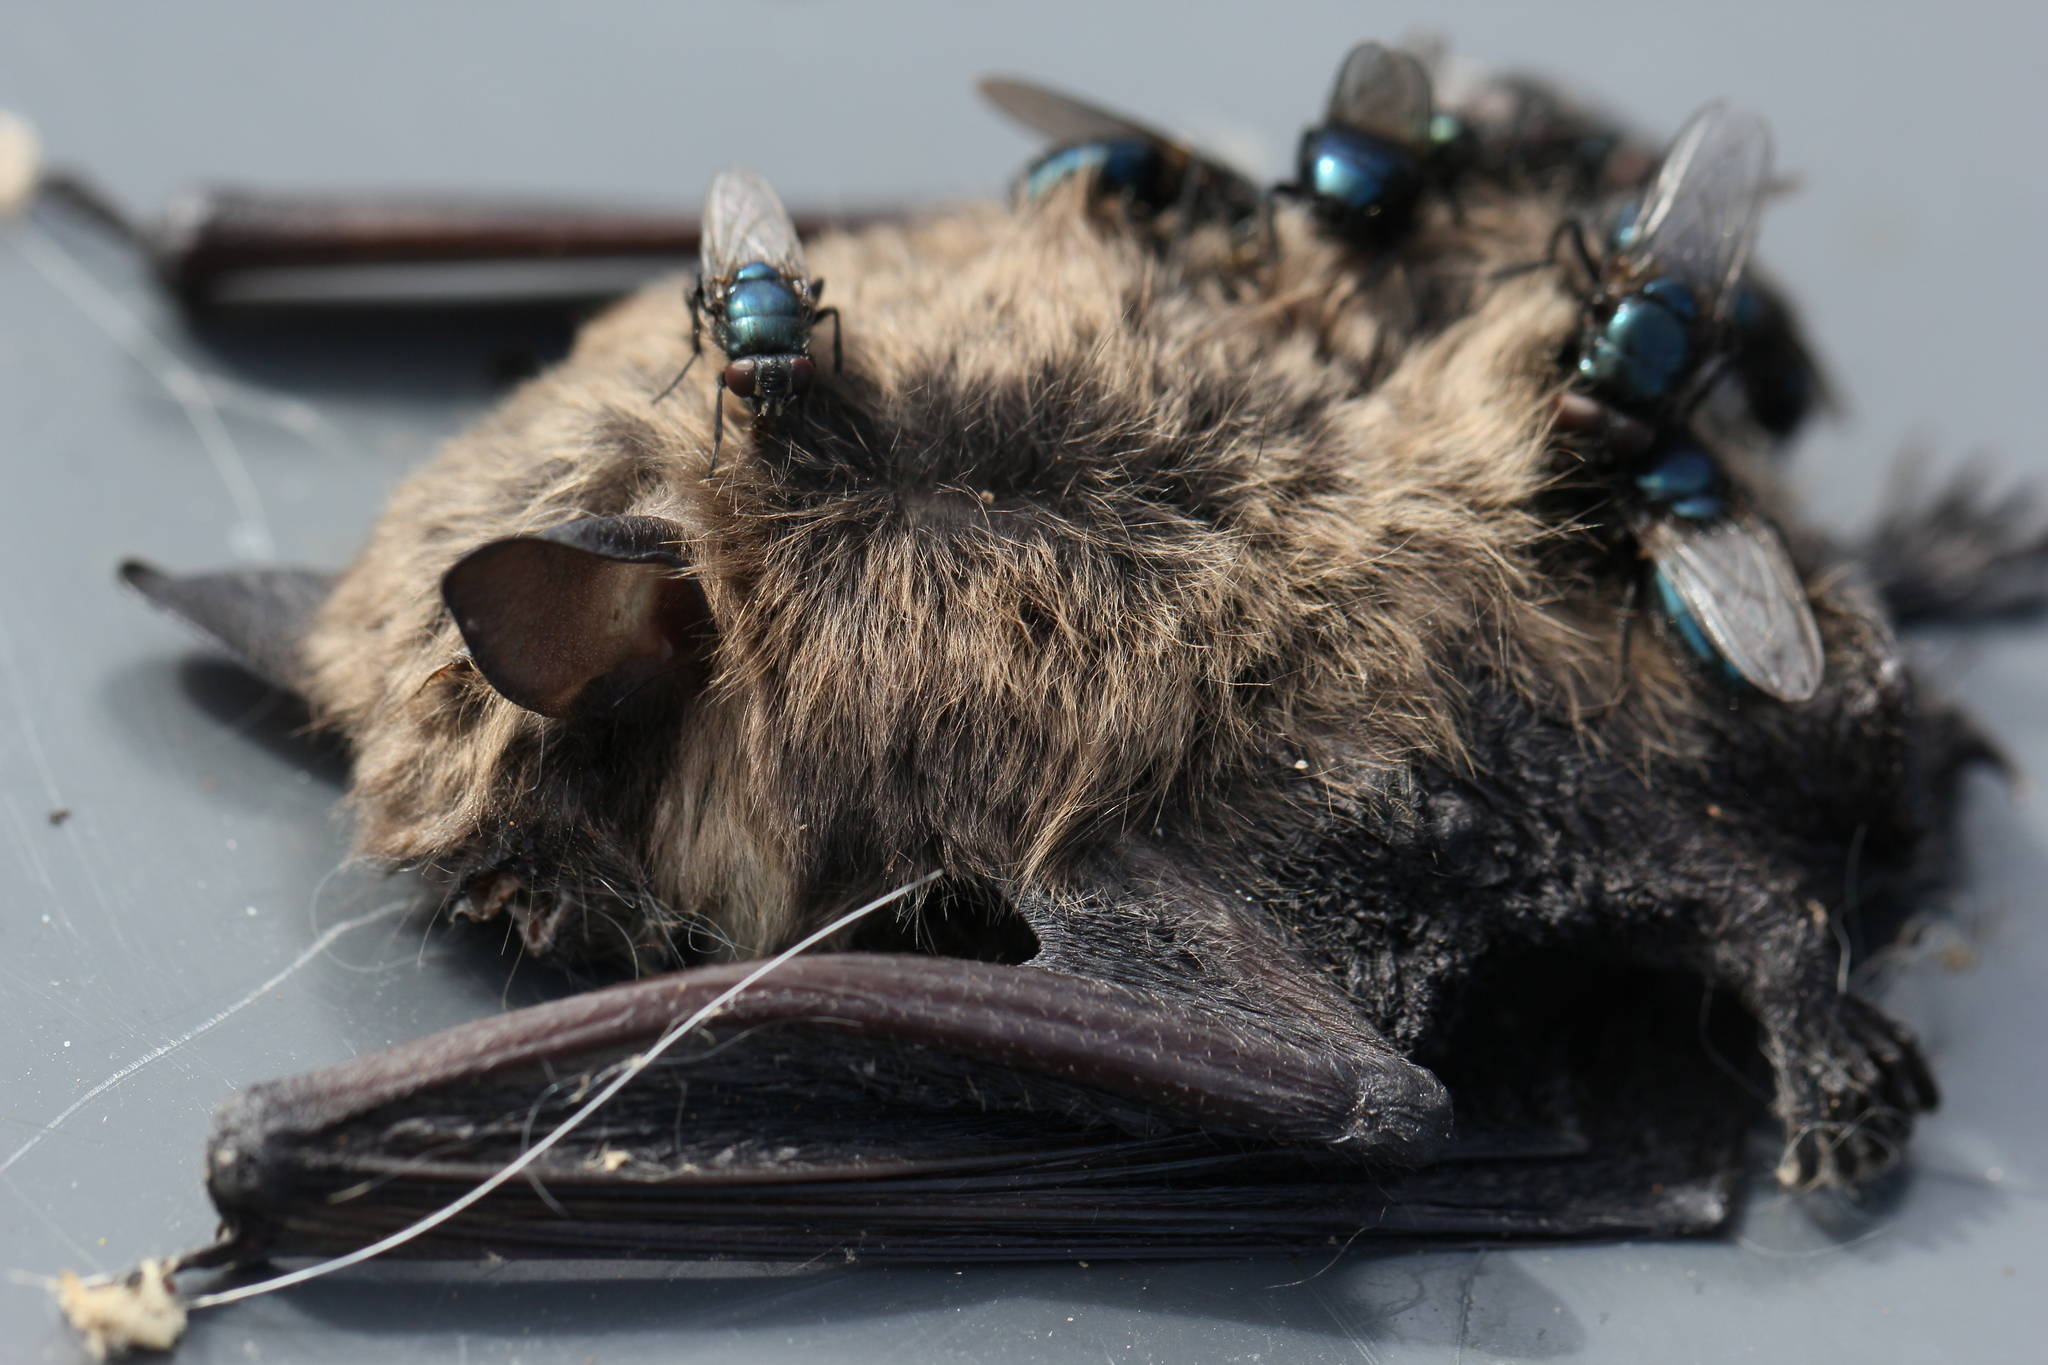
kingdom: Animalia
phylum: Chordata
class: Mammalia
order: Chiroptera
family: Vespertilionidae
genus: Myotis
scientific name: Myotis lucifugus
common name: Little brown bat
